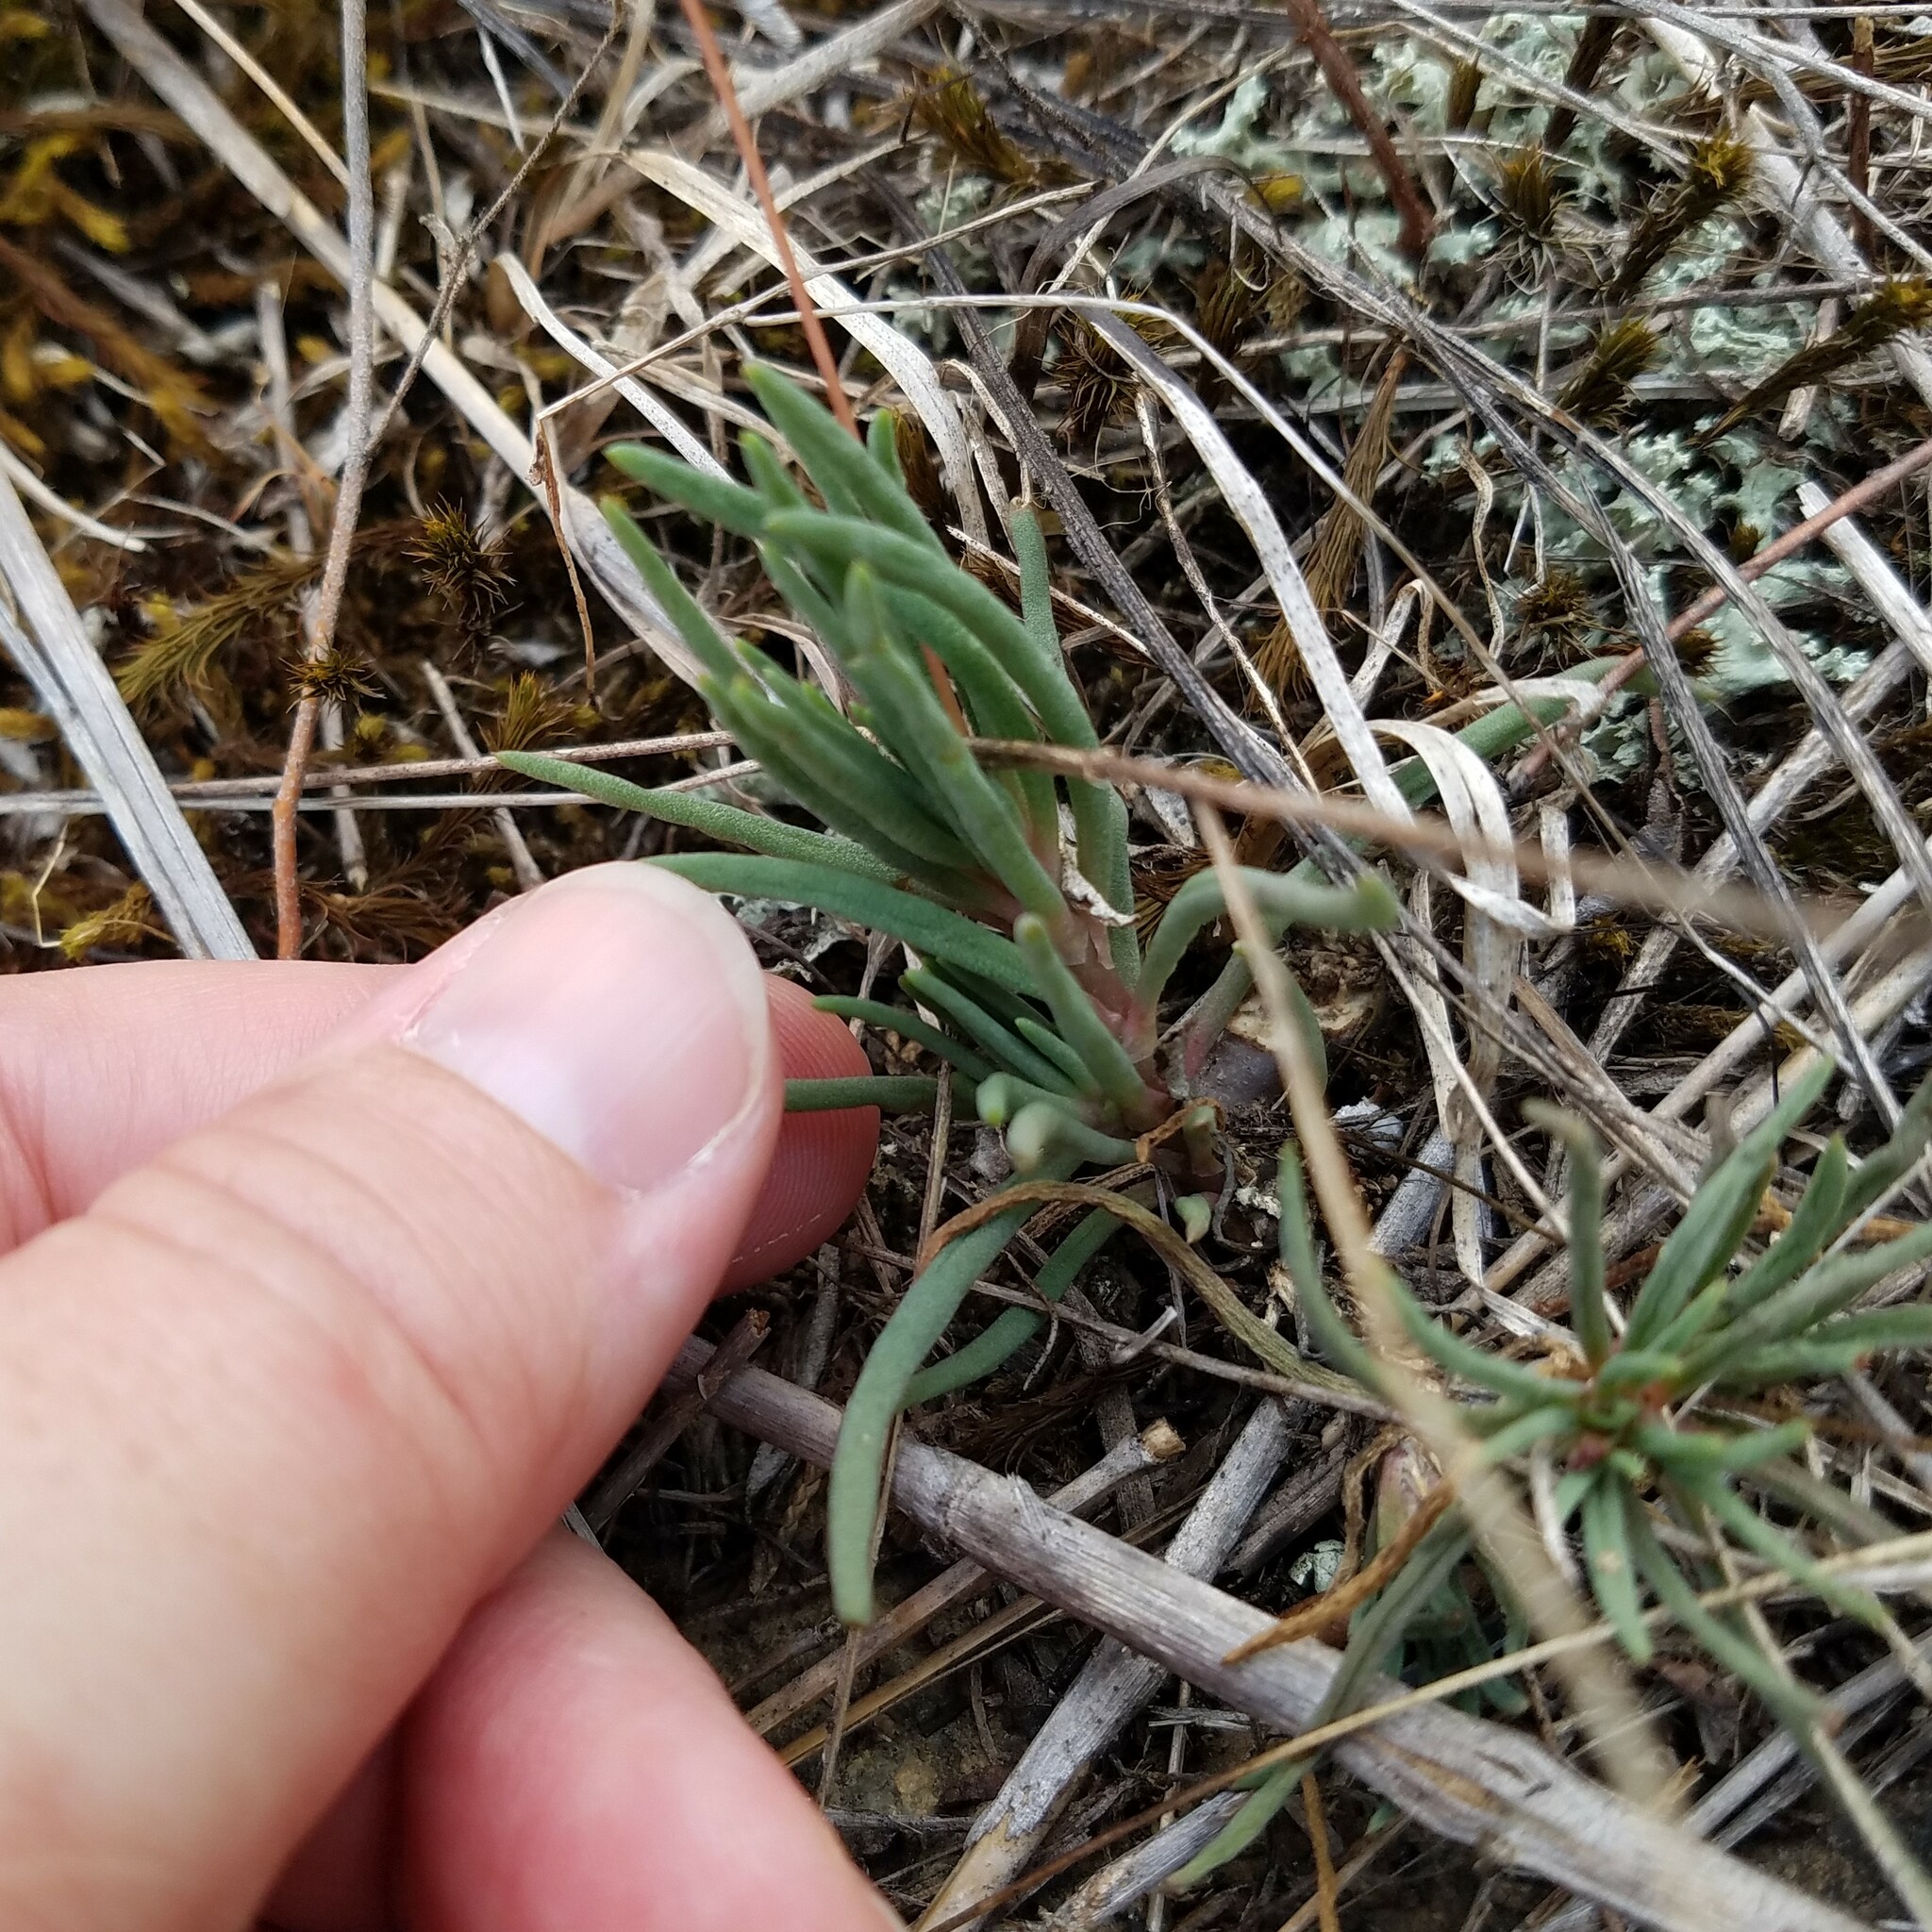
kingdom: Plantae
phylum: Tracheophyta
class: Magnoliopsida
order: Caryophyllales
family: Montiaceae
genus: Phemeranthus
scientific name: Phemeranthus teretifolius
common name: Quill fameflower
